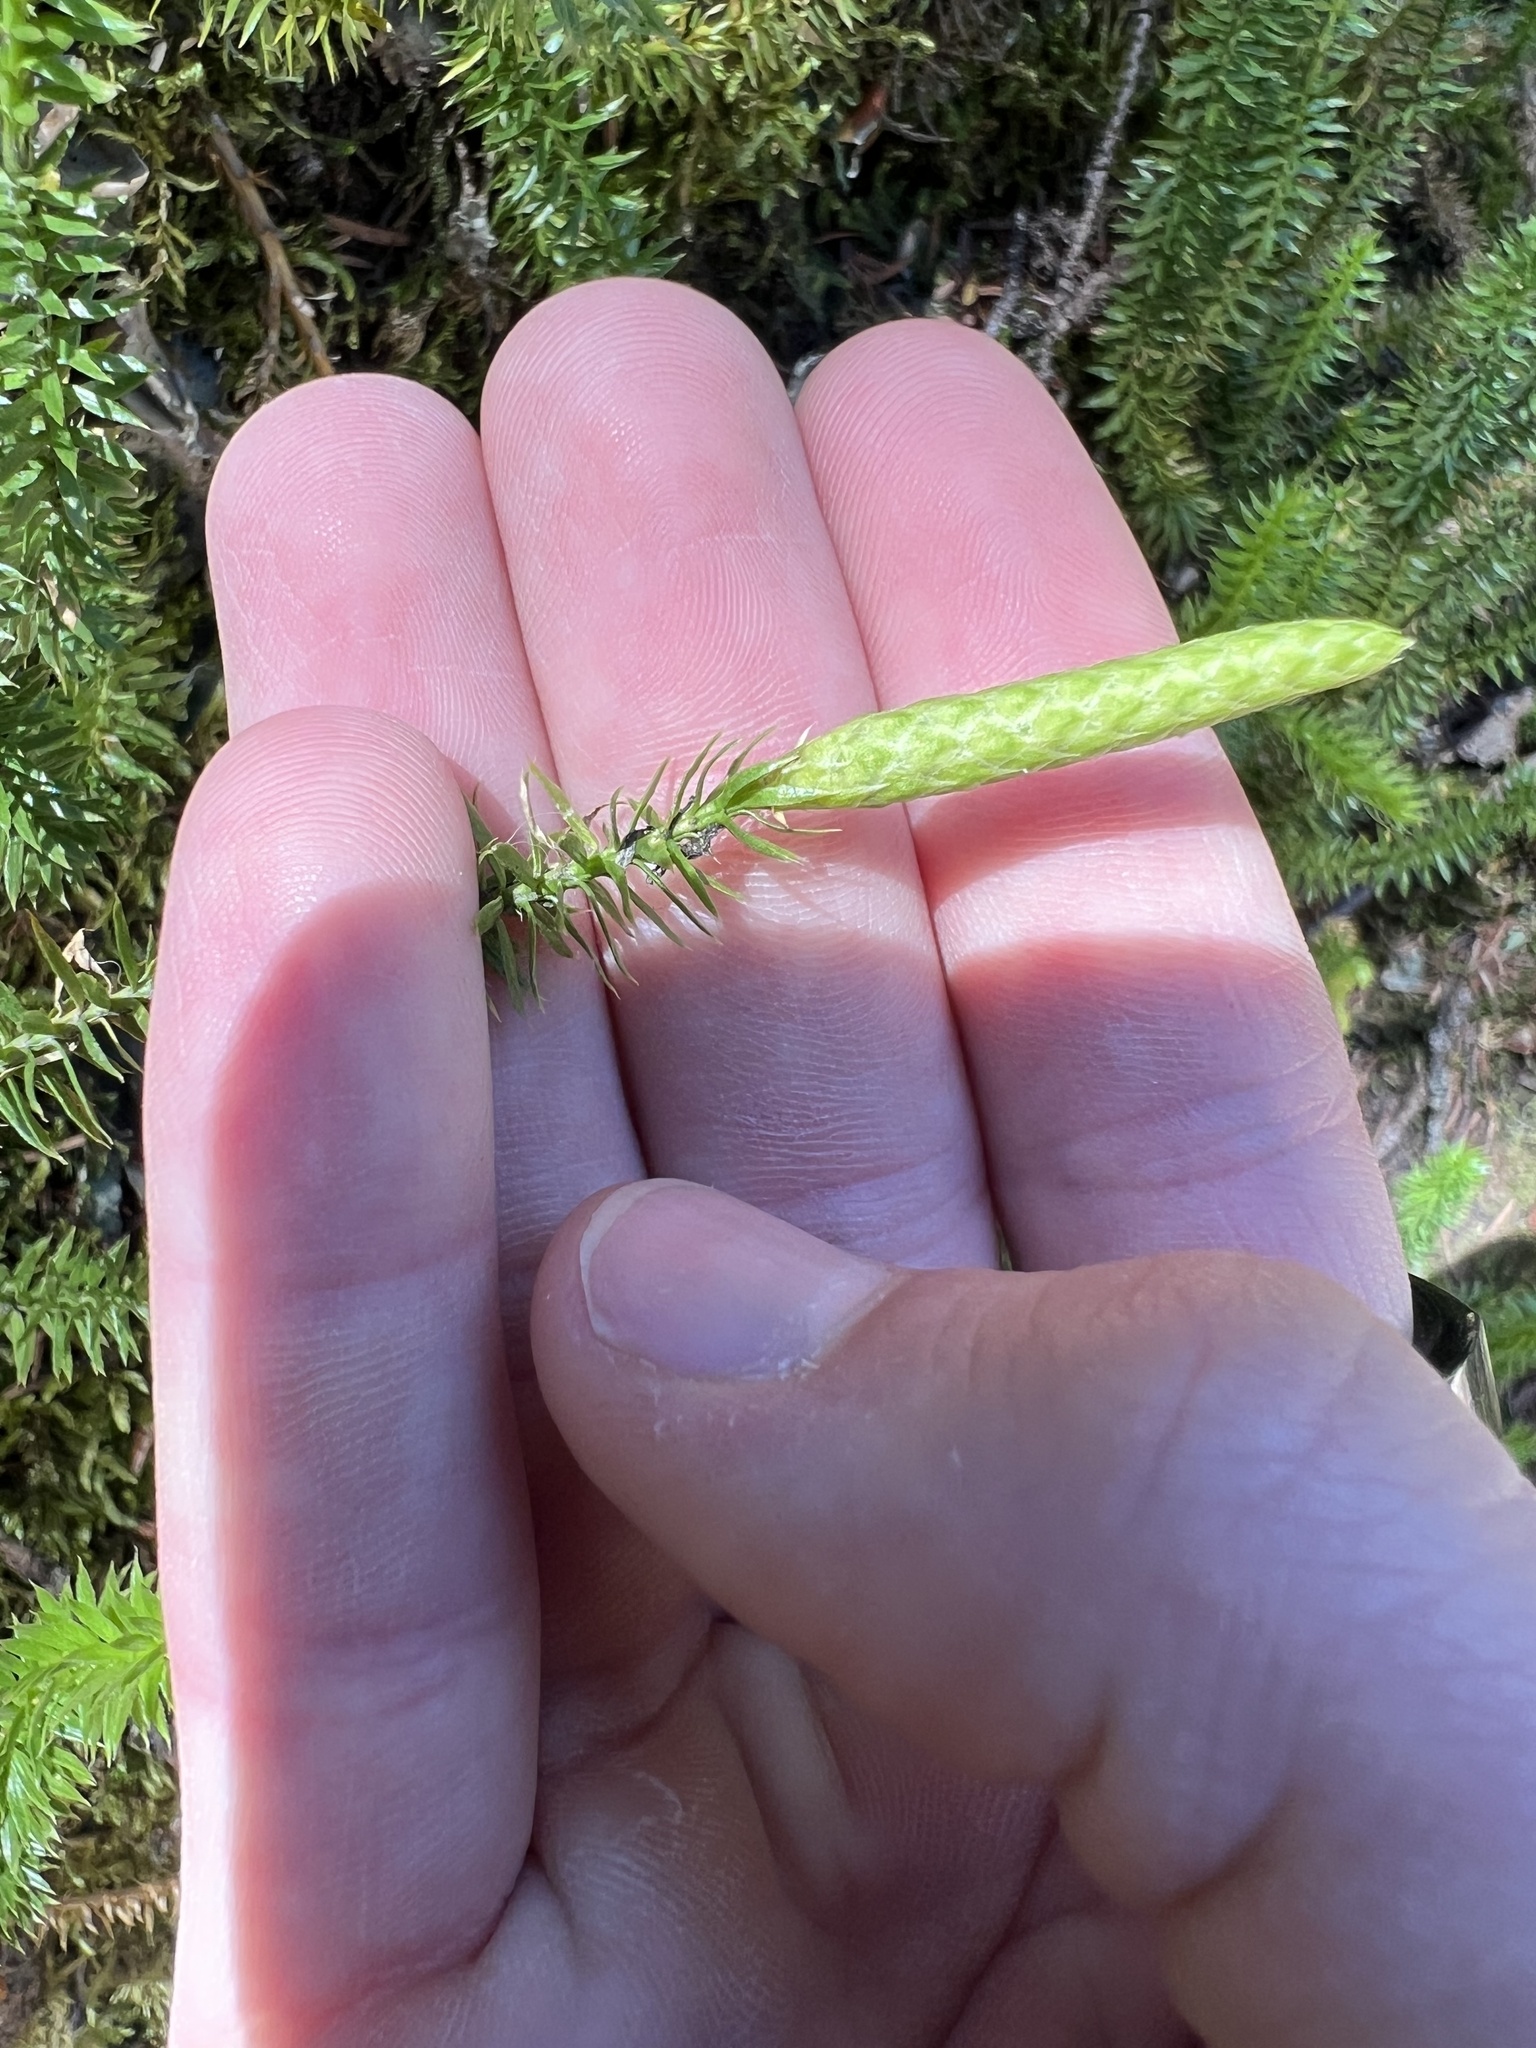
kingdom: Plantae
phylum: Tracheophyta
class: Lycopodiopsida
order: Lycopodiales
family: Lycopodiaceae
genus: Spinulum
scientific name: Spinulum annotinum
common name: Interrupted club-moss
